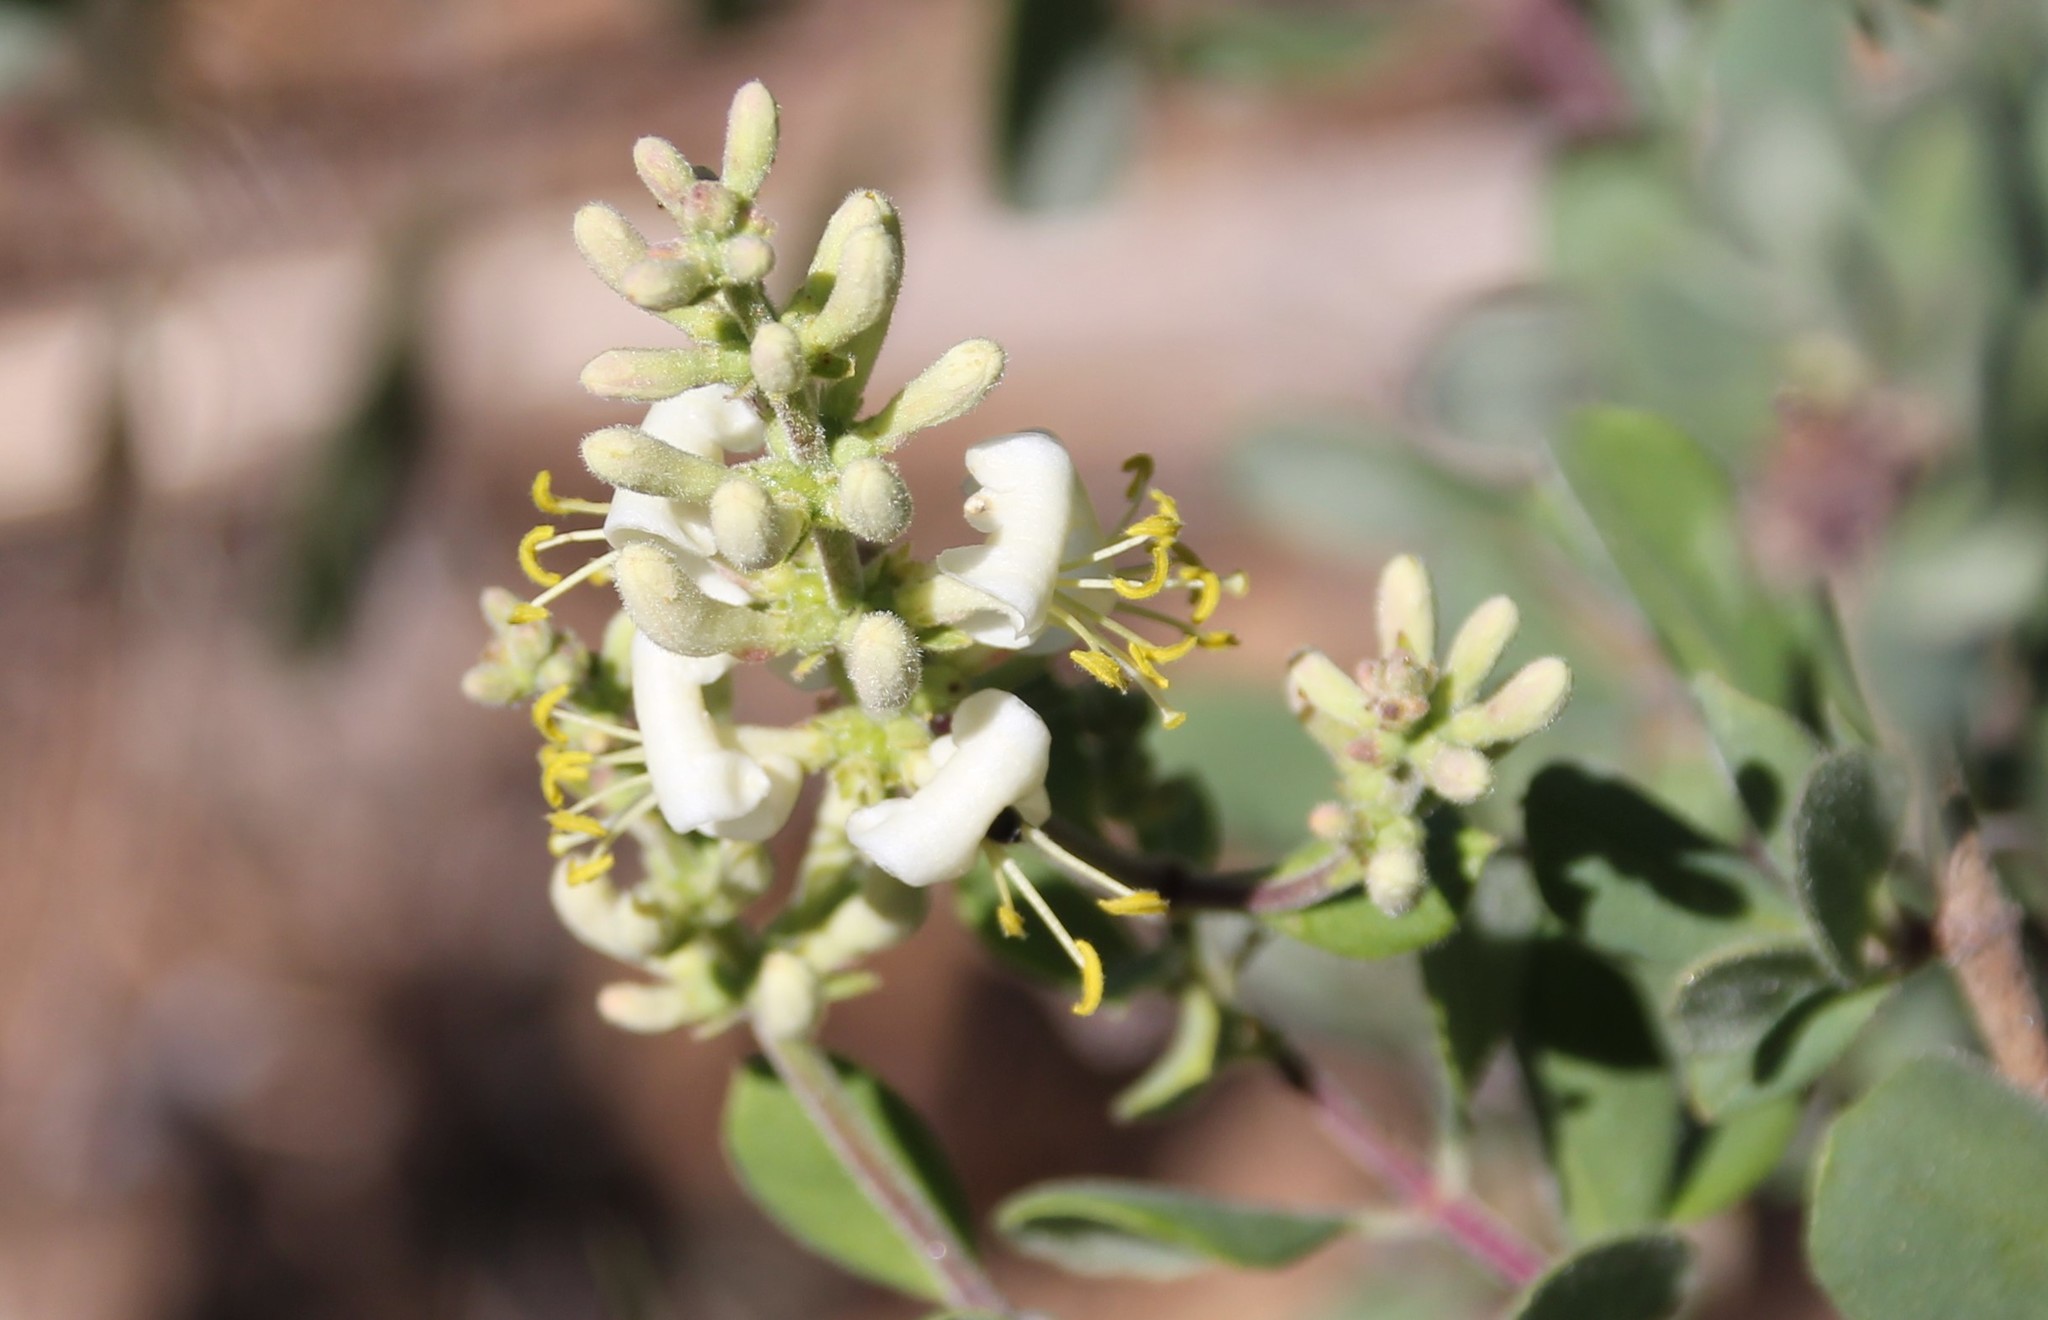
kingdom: Plantae
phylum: Tracheophyta
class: Magnoliopsida
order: Dipsacales
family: Caprifoliaceae
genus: Lonicera
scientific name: Lonicera subspicata
